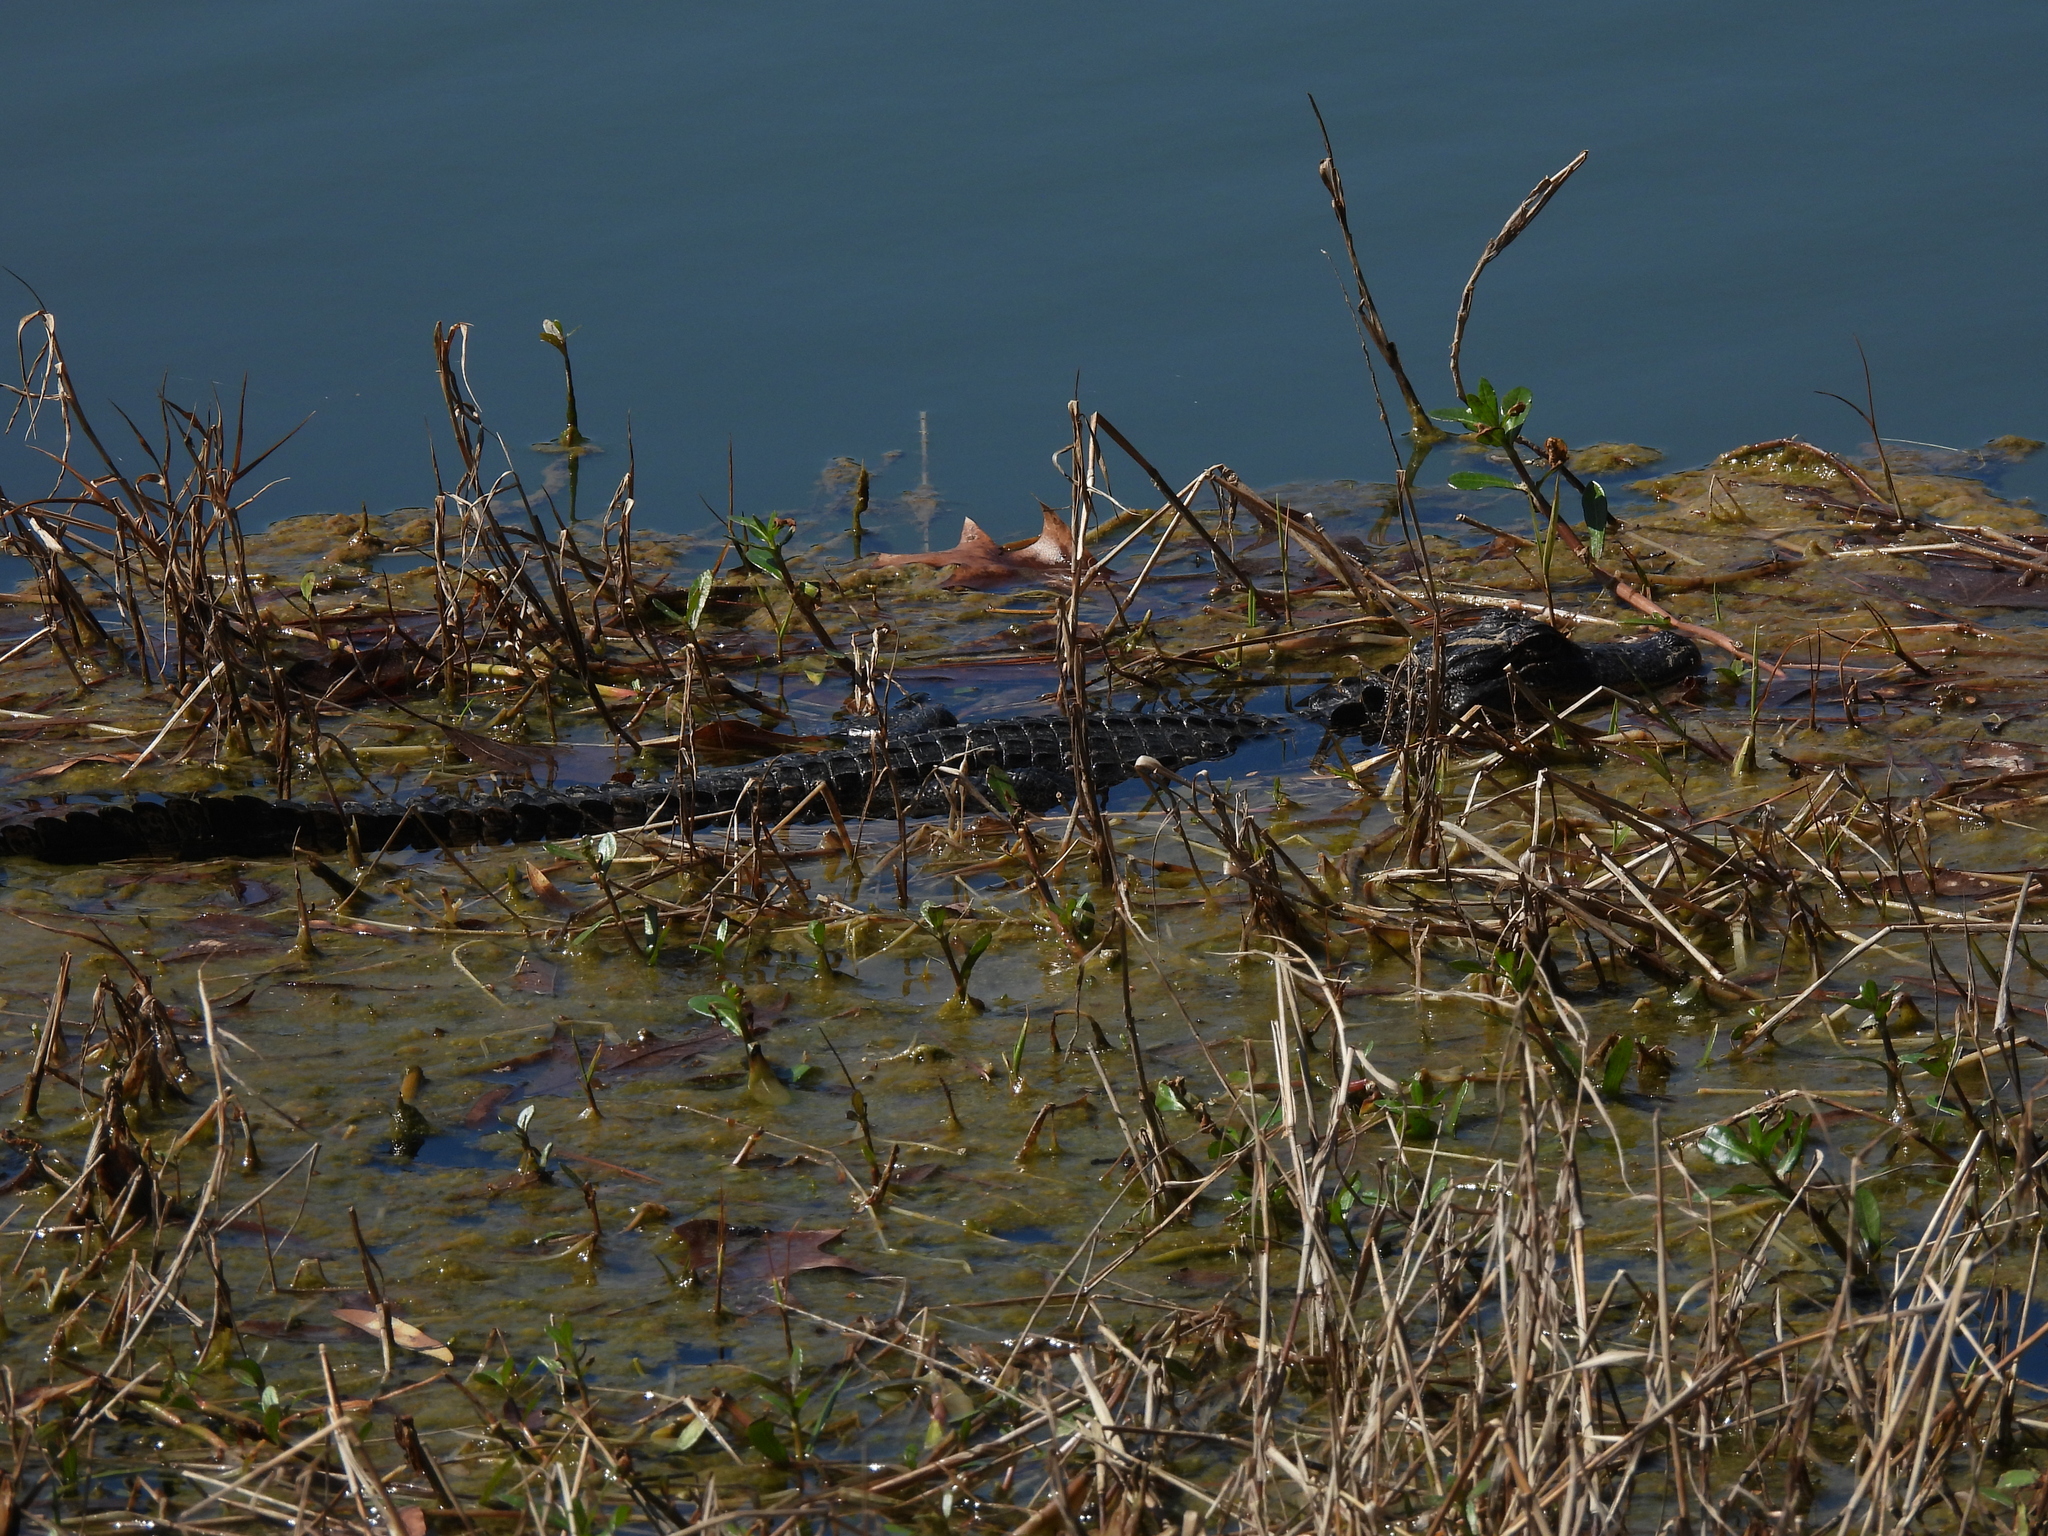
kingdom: Animalia
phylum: Chordata
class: Crocodylia
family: Alligatoridae
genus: Alligator
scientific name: Alligator mississippiensis
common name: American alligator
